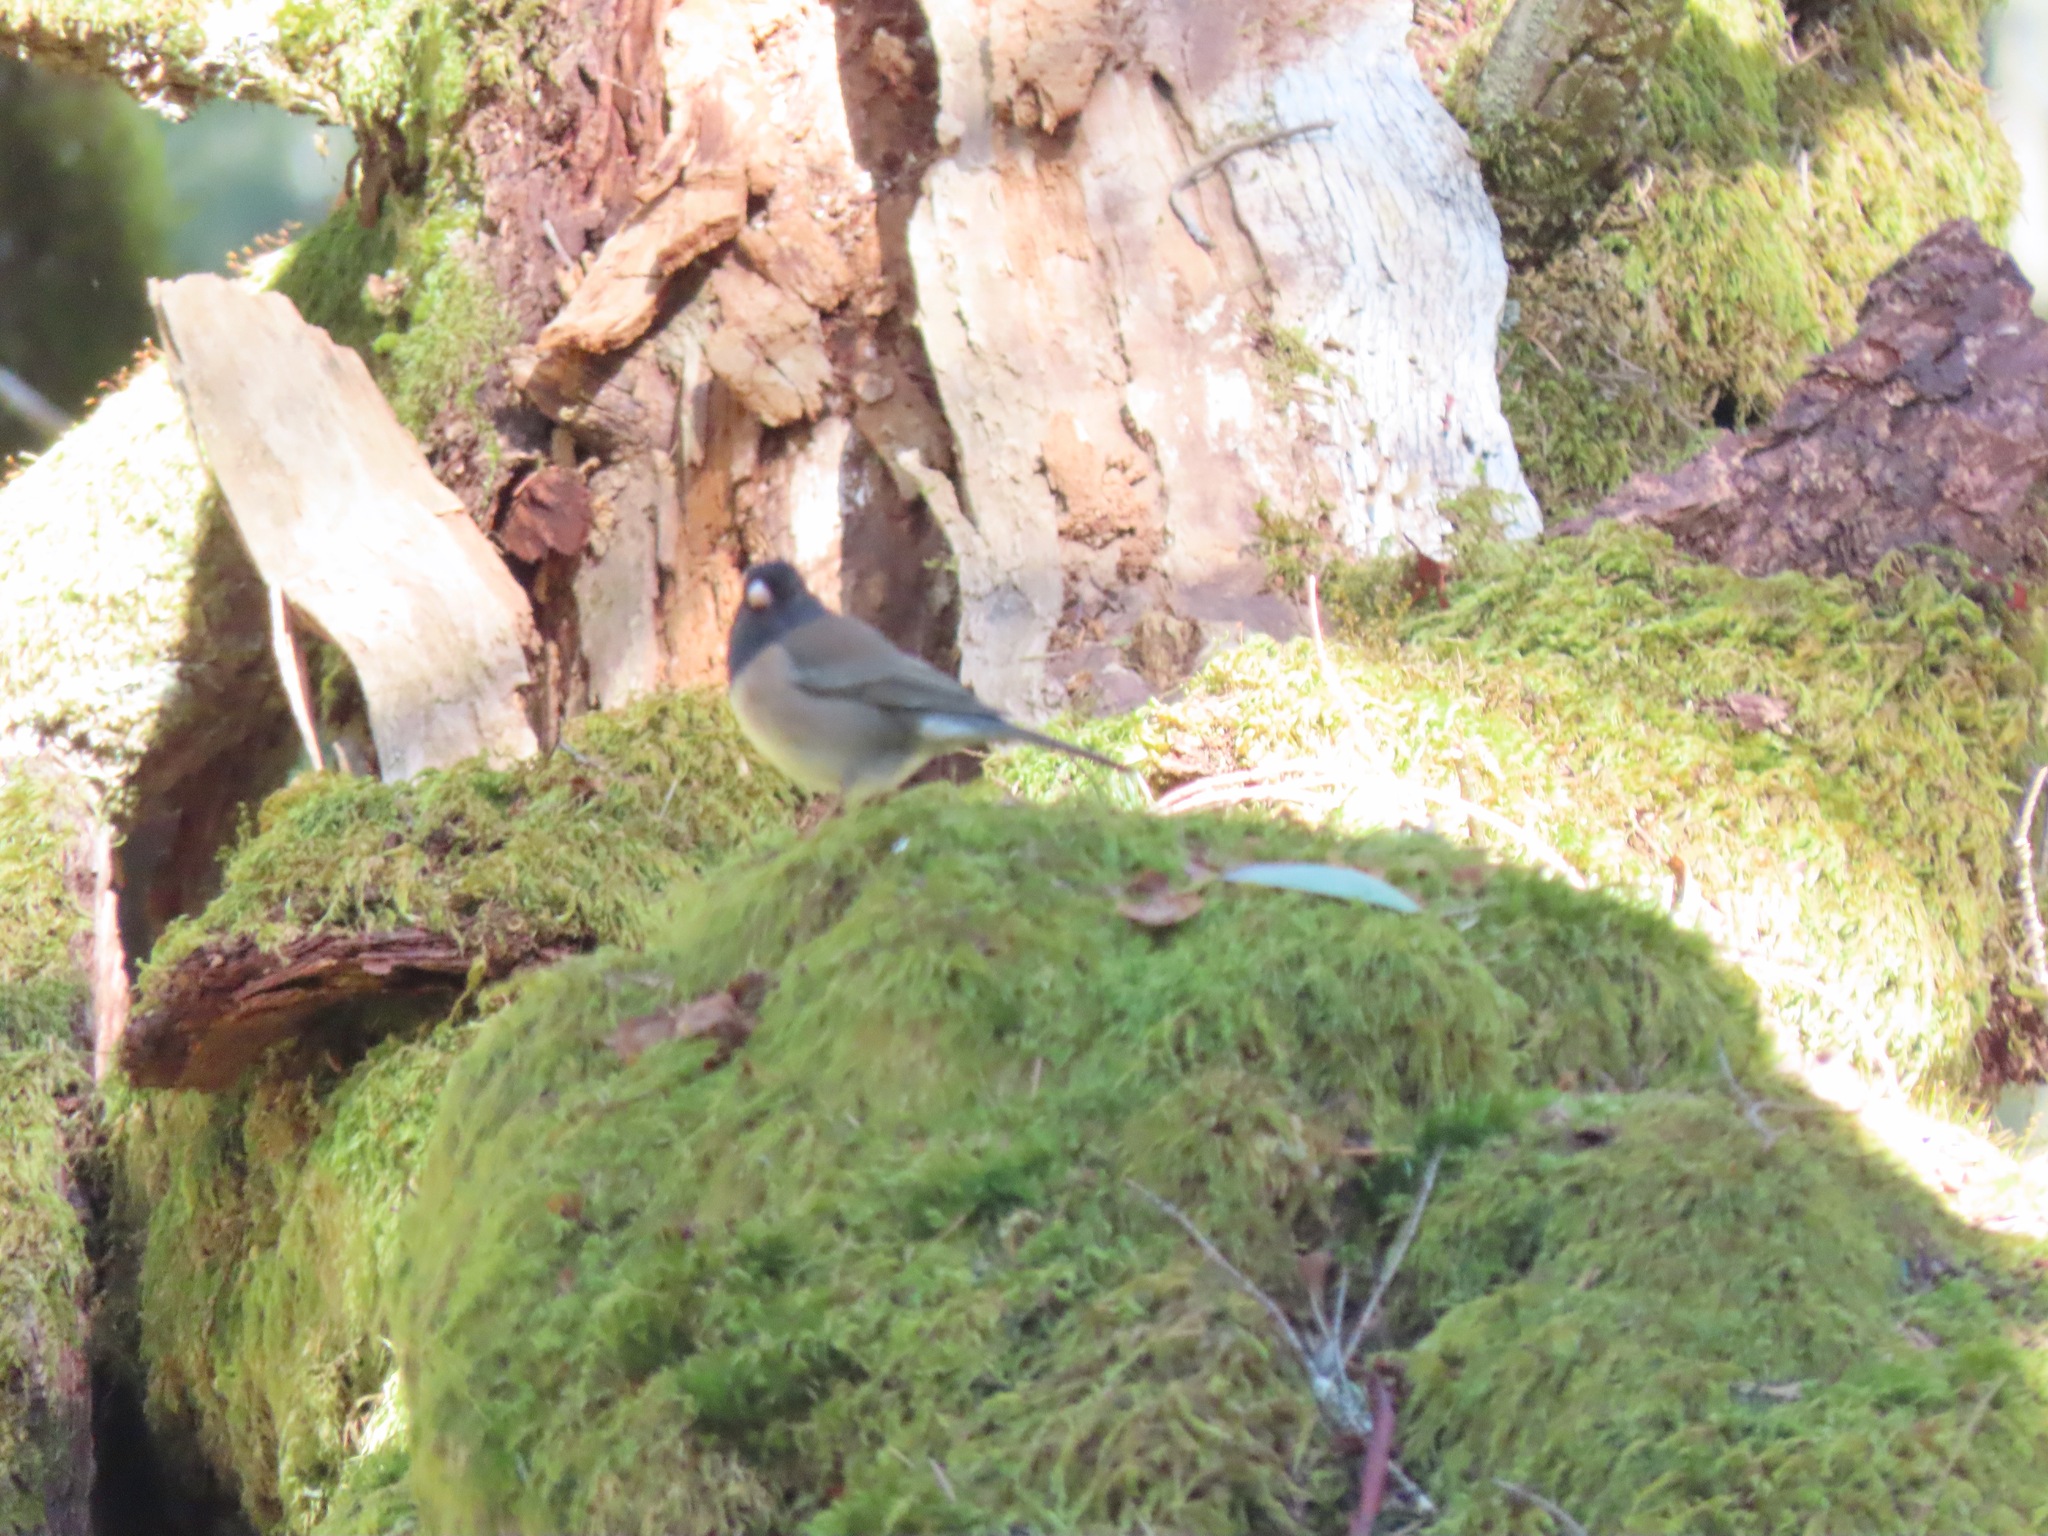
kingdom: Animalia
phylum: Chordata
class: Aves
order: Passeriformes
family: Passerellidae
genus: Junco
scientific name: Junco hyemalis
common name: Dark-eyed junco
